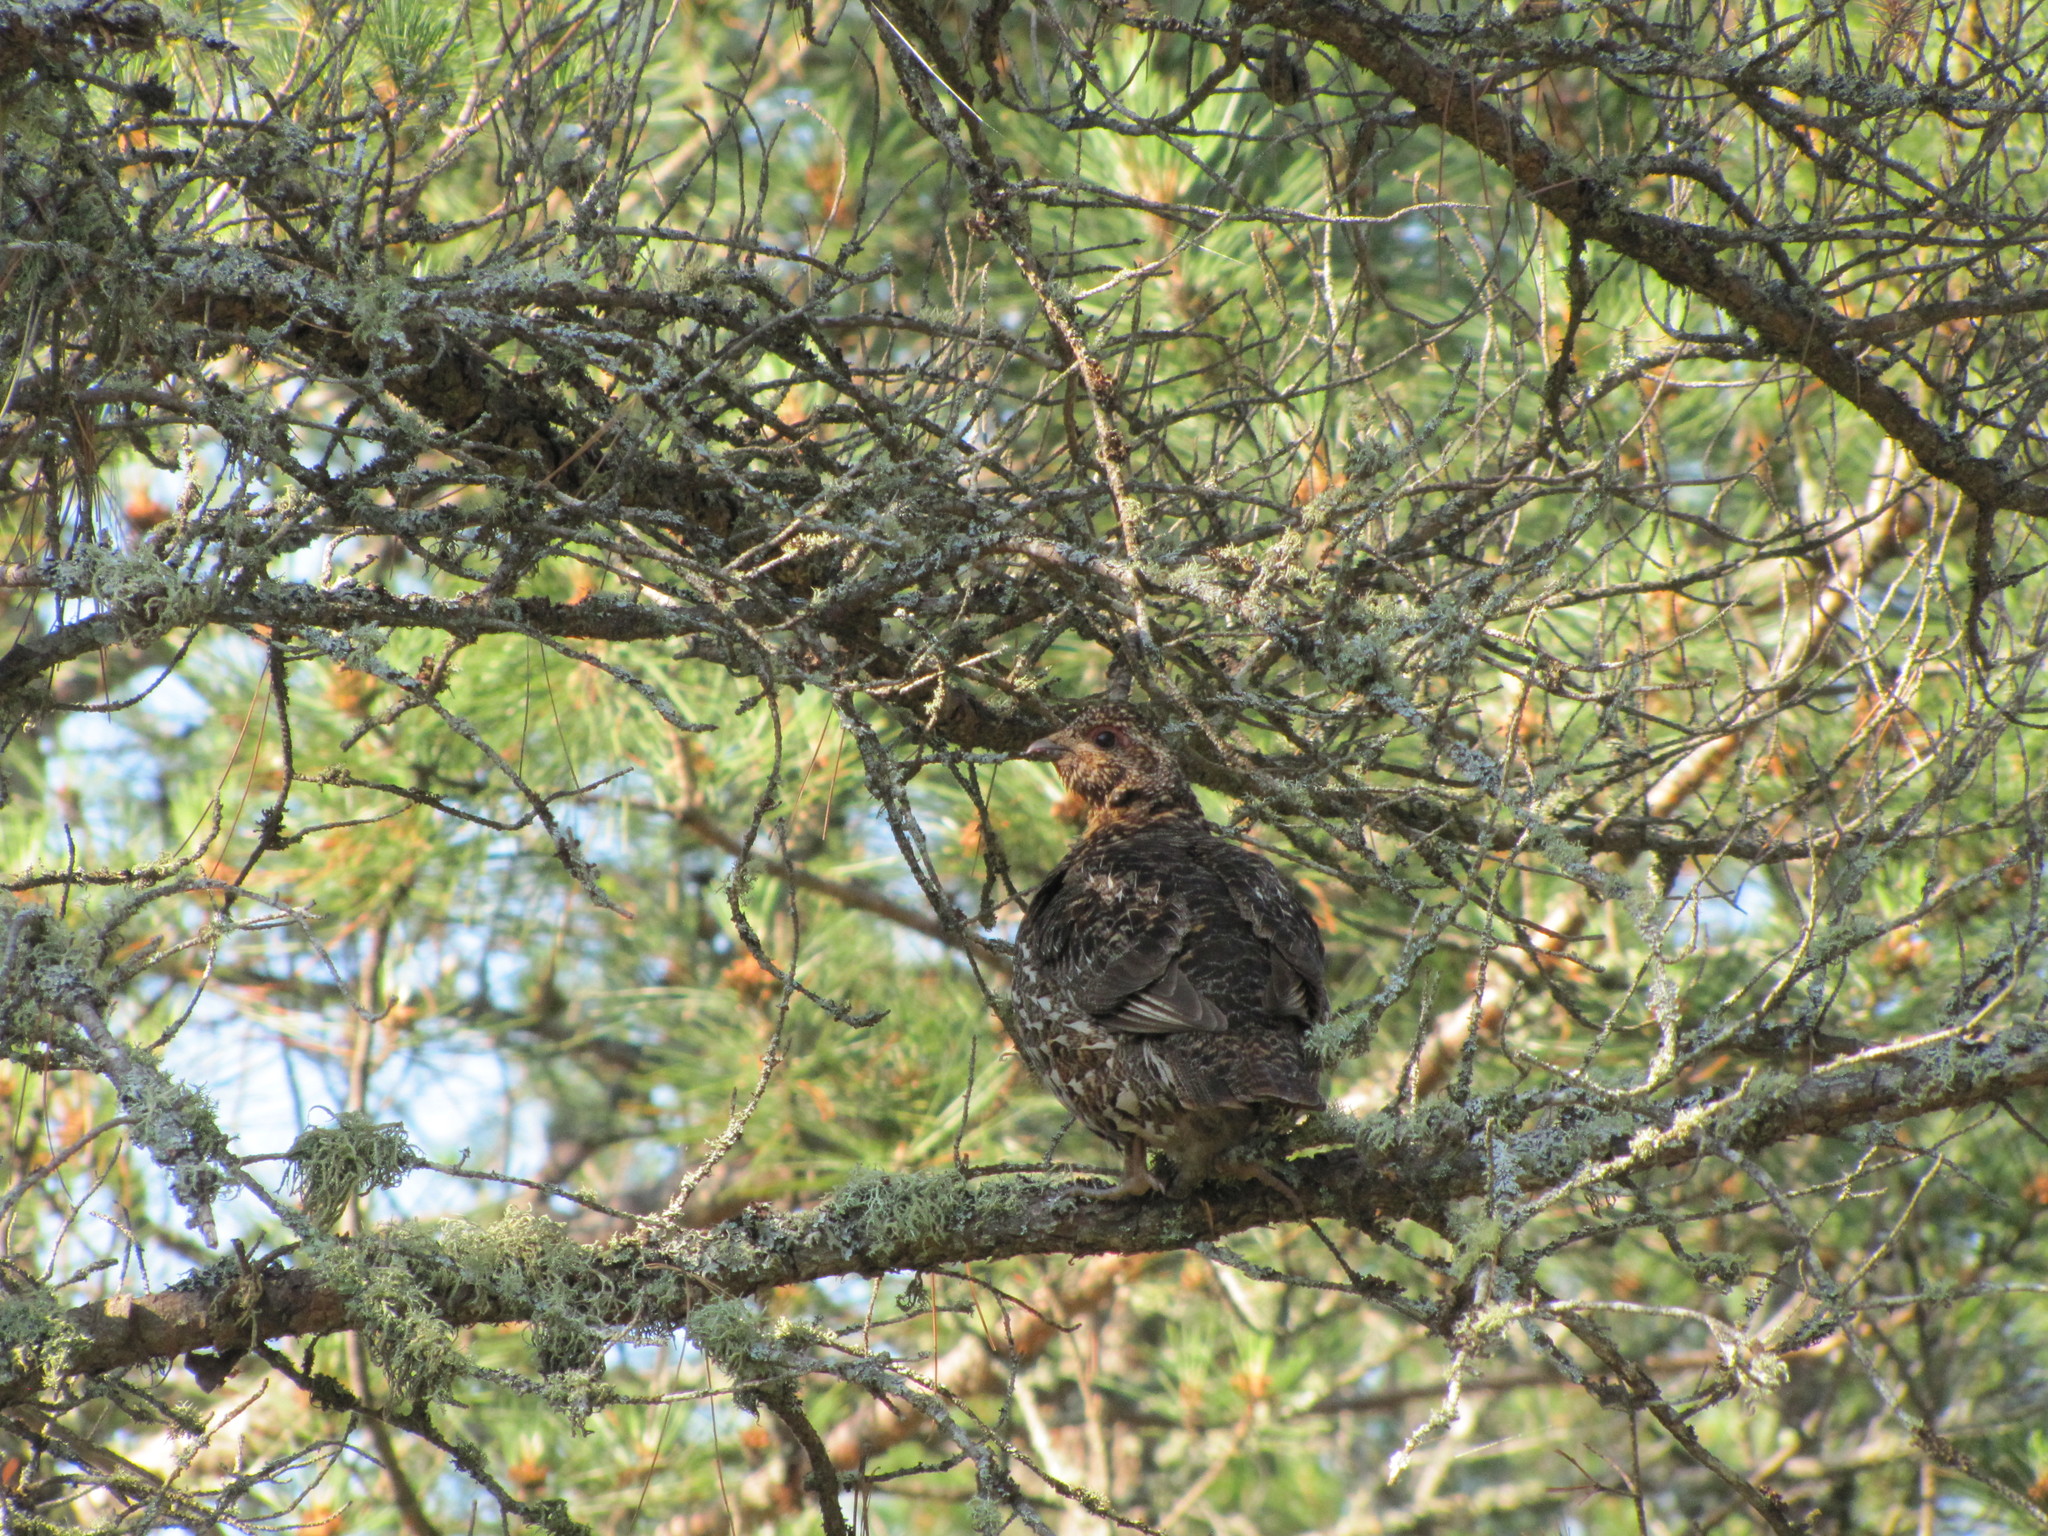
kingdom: Animalia
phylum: Chordata
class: Aves
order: Galliformes
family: Phasianidae
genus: Canachites
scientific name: Canachites canadensis
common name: Spruce grouse
